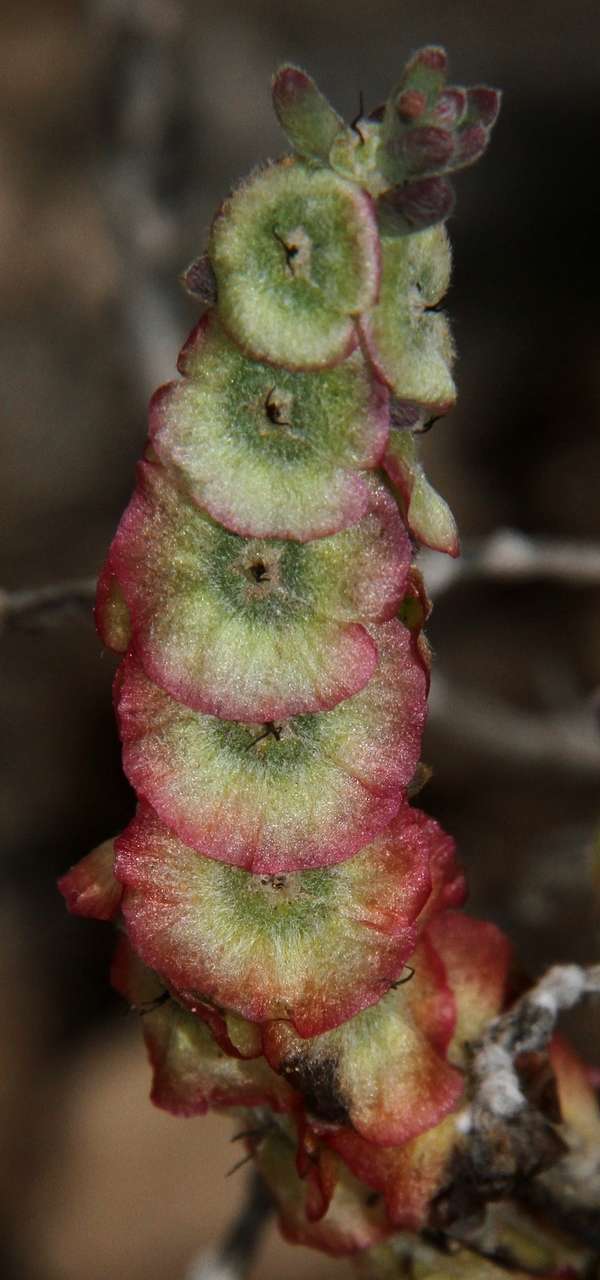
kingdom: Plantae
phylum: Tracheophyta
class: Magnoliopsida
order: Caryophyllales
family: Amaranthaceae
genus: Maireana
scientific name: Maireana trichoptera
